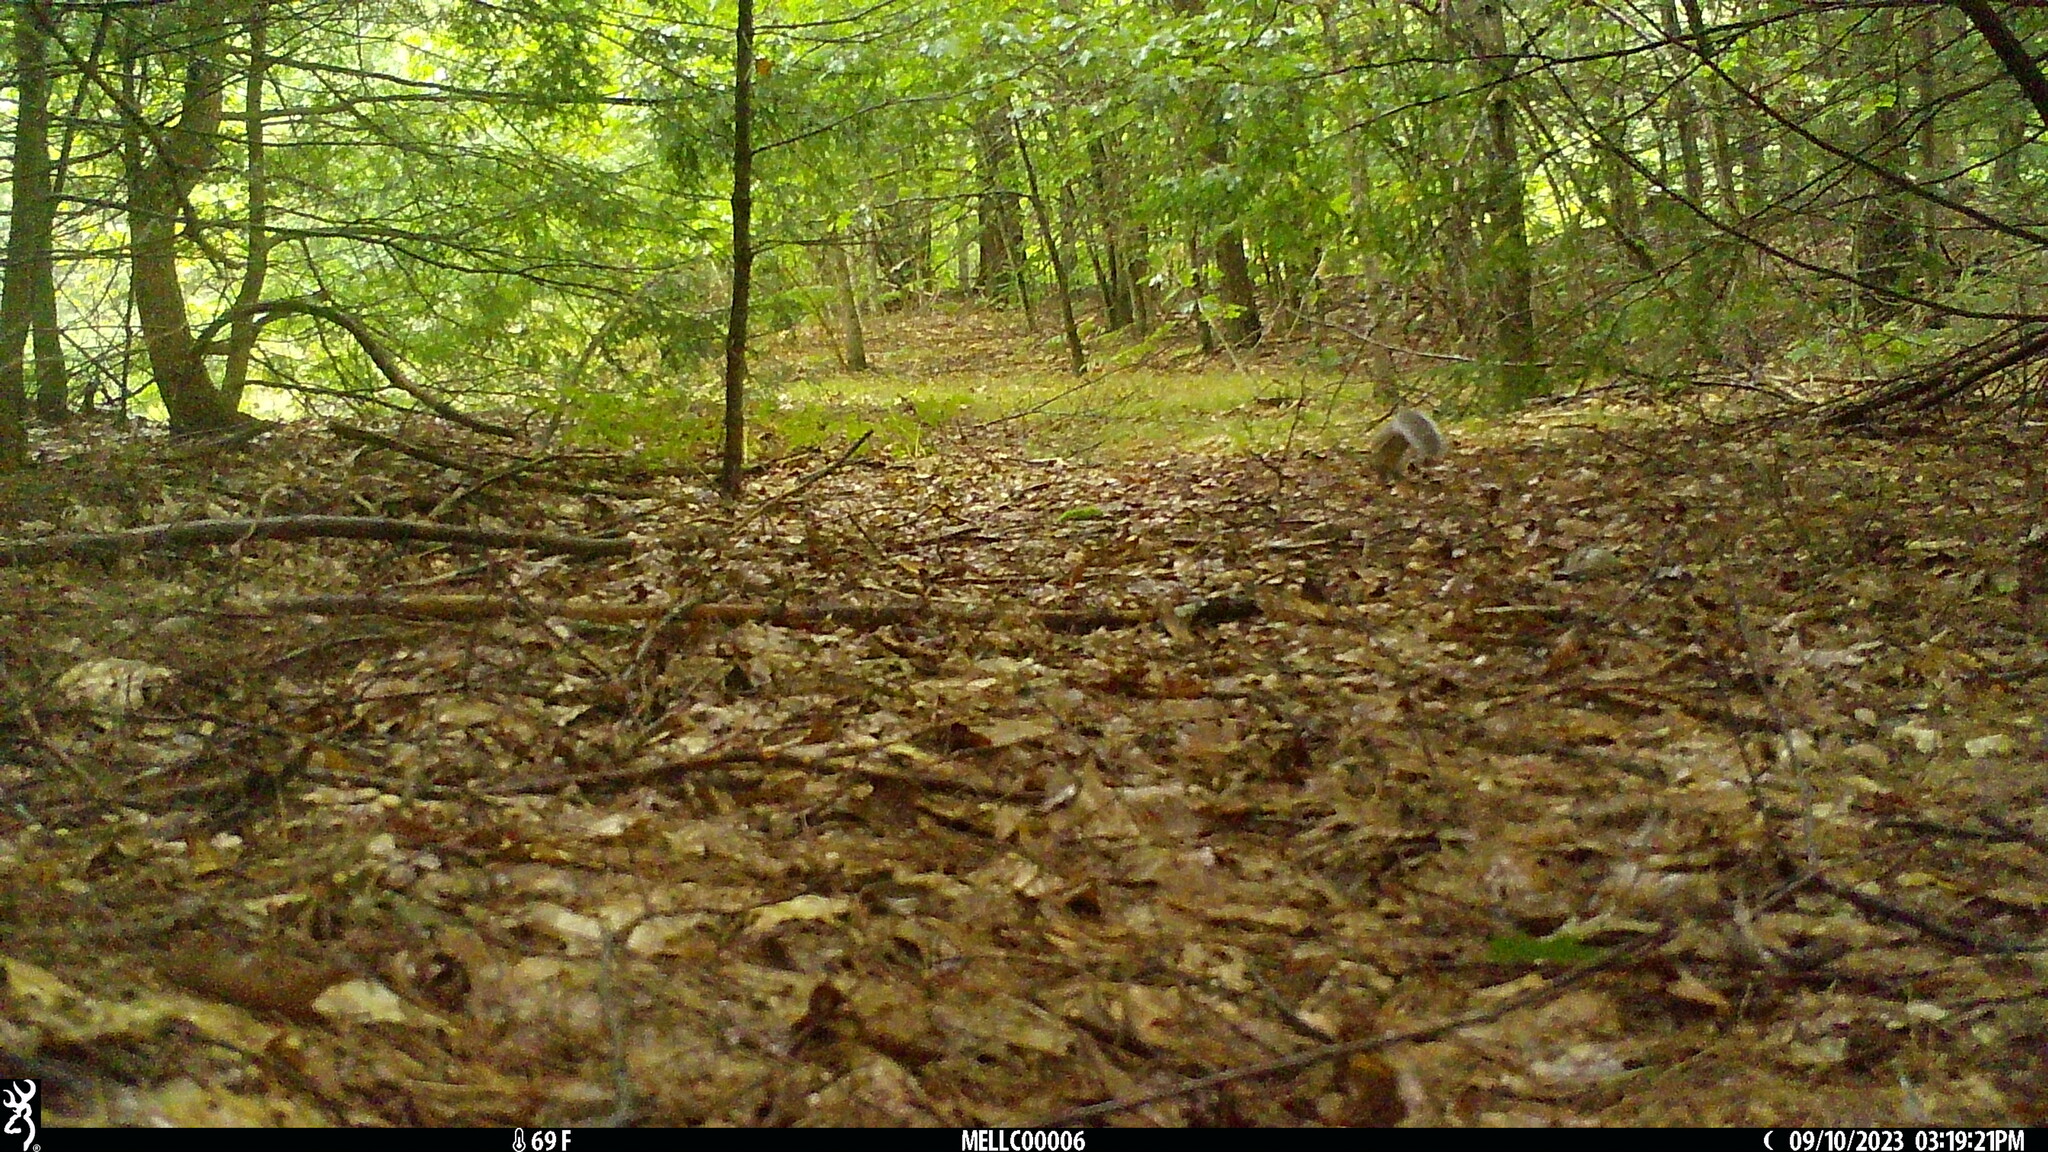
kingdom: Animalia
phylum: Chordata
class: Mammalia
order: Rodentia
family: Sciuridae
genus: Sciurus
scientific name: Sciurus carolinensis
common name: Eastern gray squirrel
